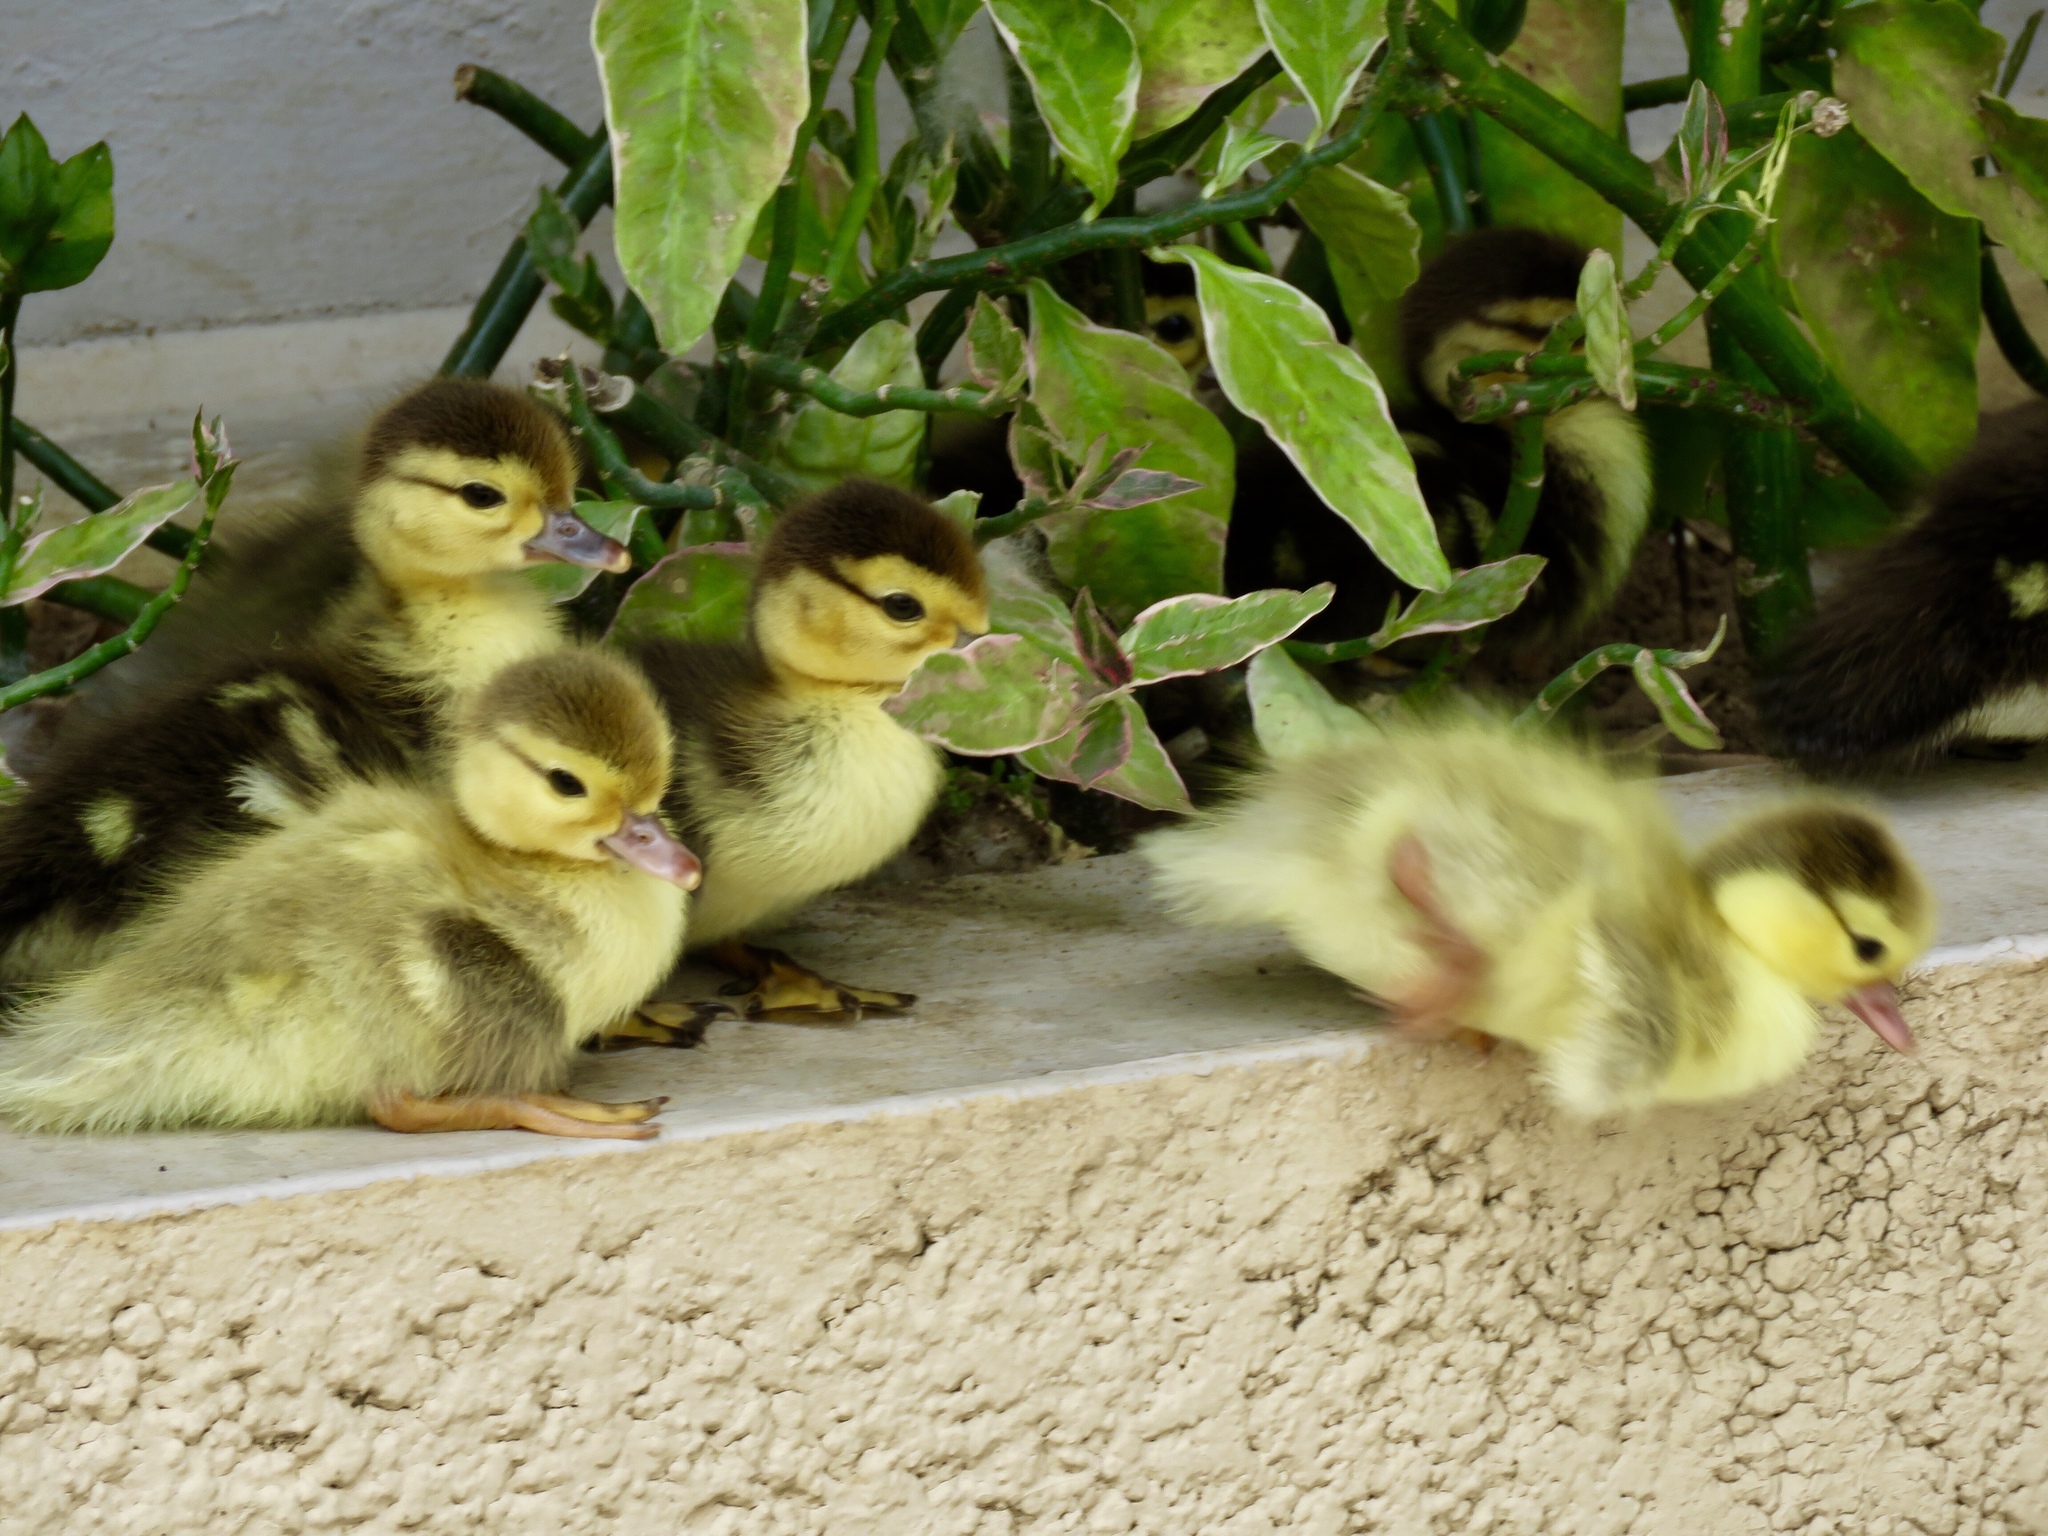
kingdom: Animalia
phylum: Chordata
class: Aves
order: Anseriformes
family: Anatidae
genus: Cairina
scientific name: Cairina moschata
